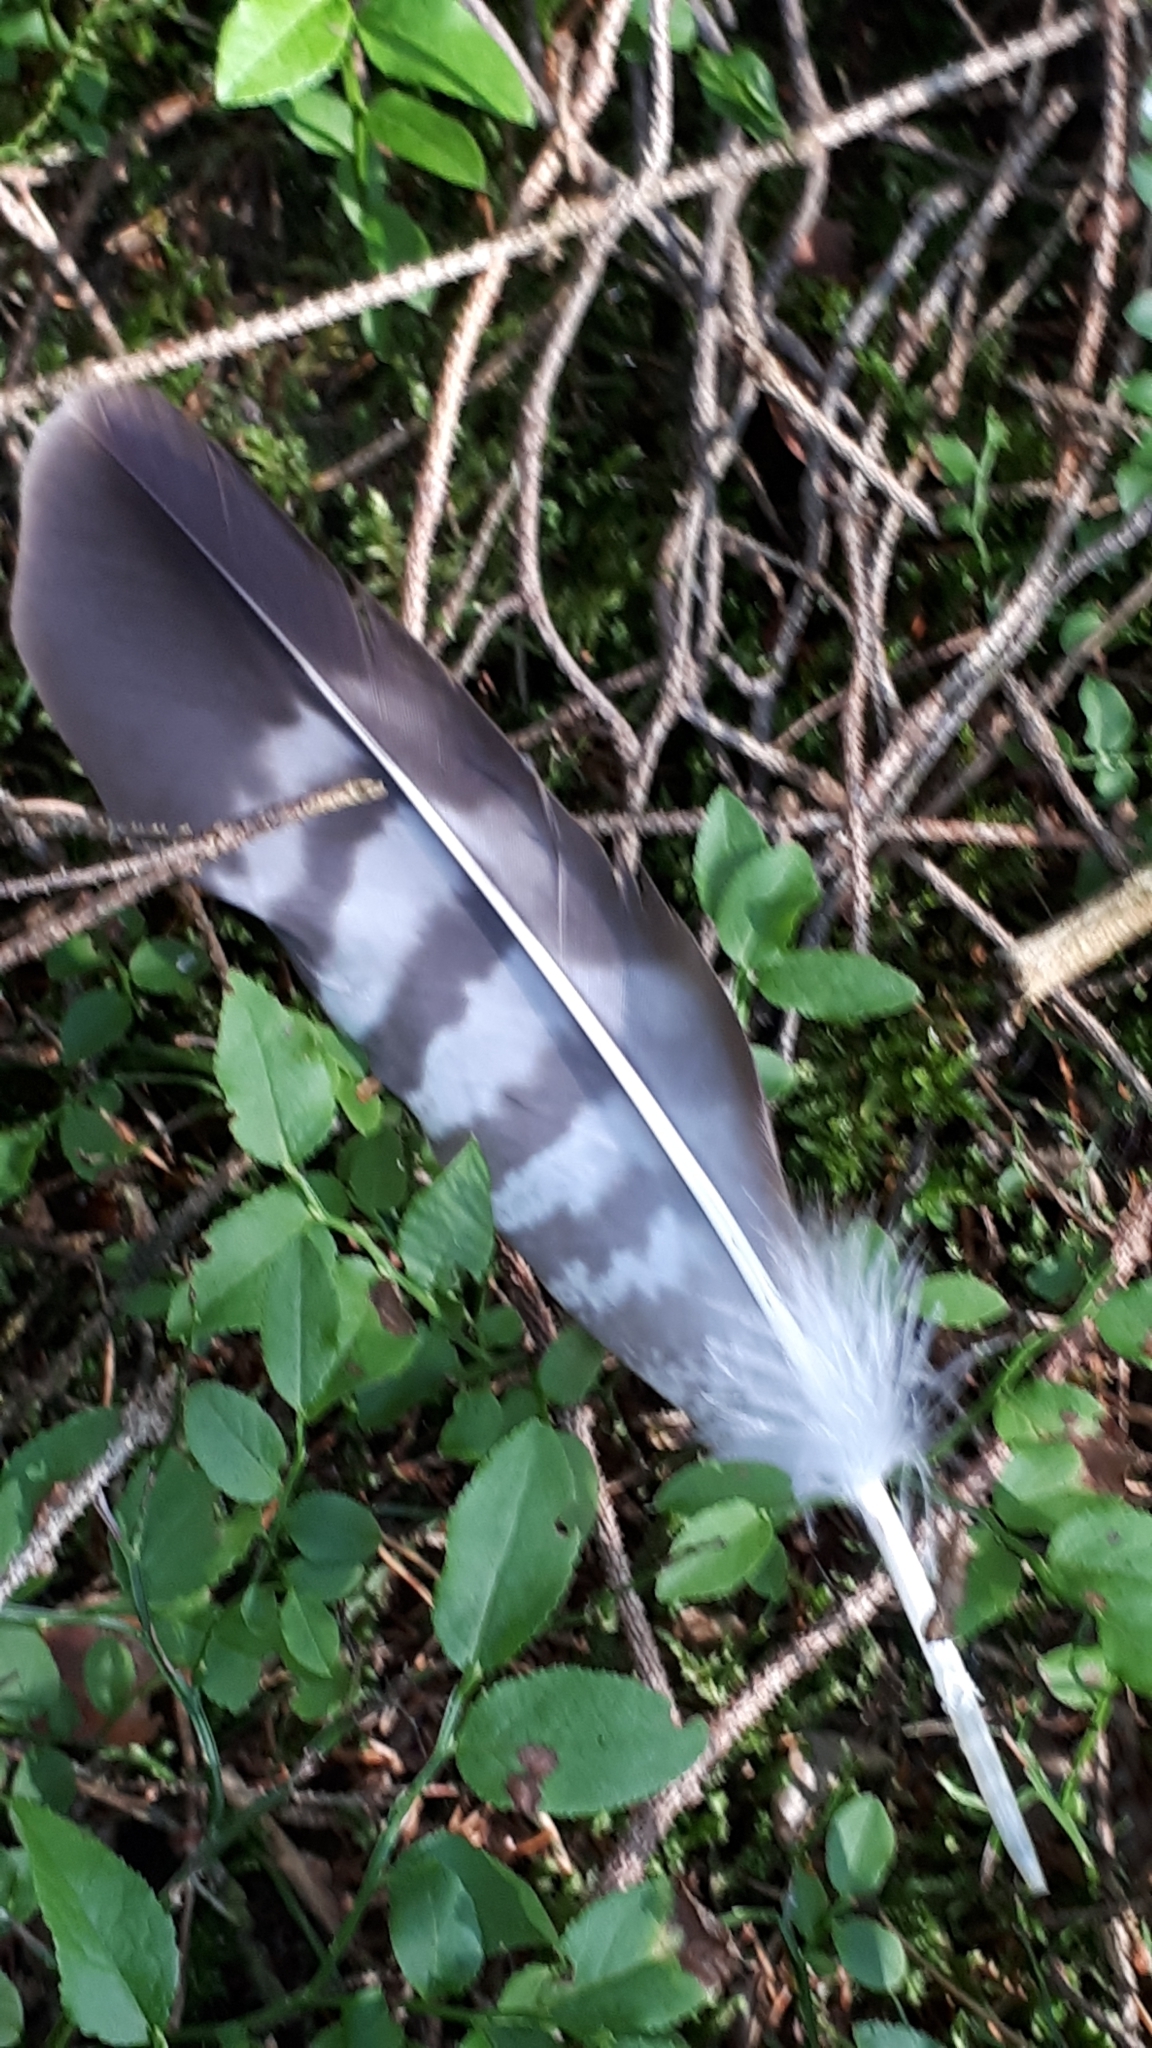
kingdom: Animalia
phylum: Chordata
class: Aves
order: Accipitriformes
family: Accipitridae
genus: Buteo
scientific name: Buteo buteo
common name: Common buzzard
